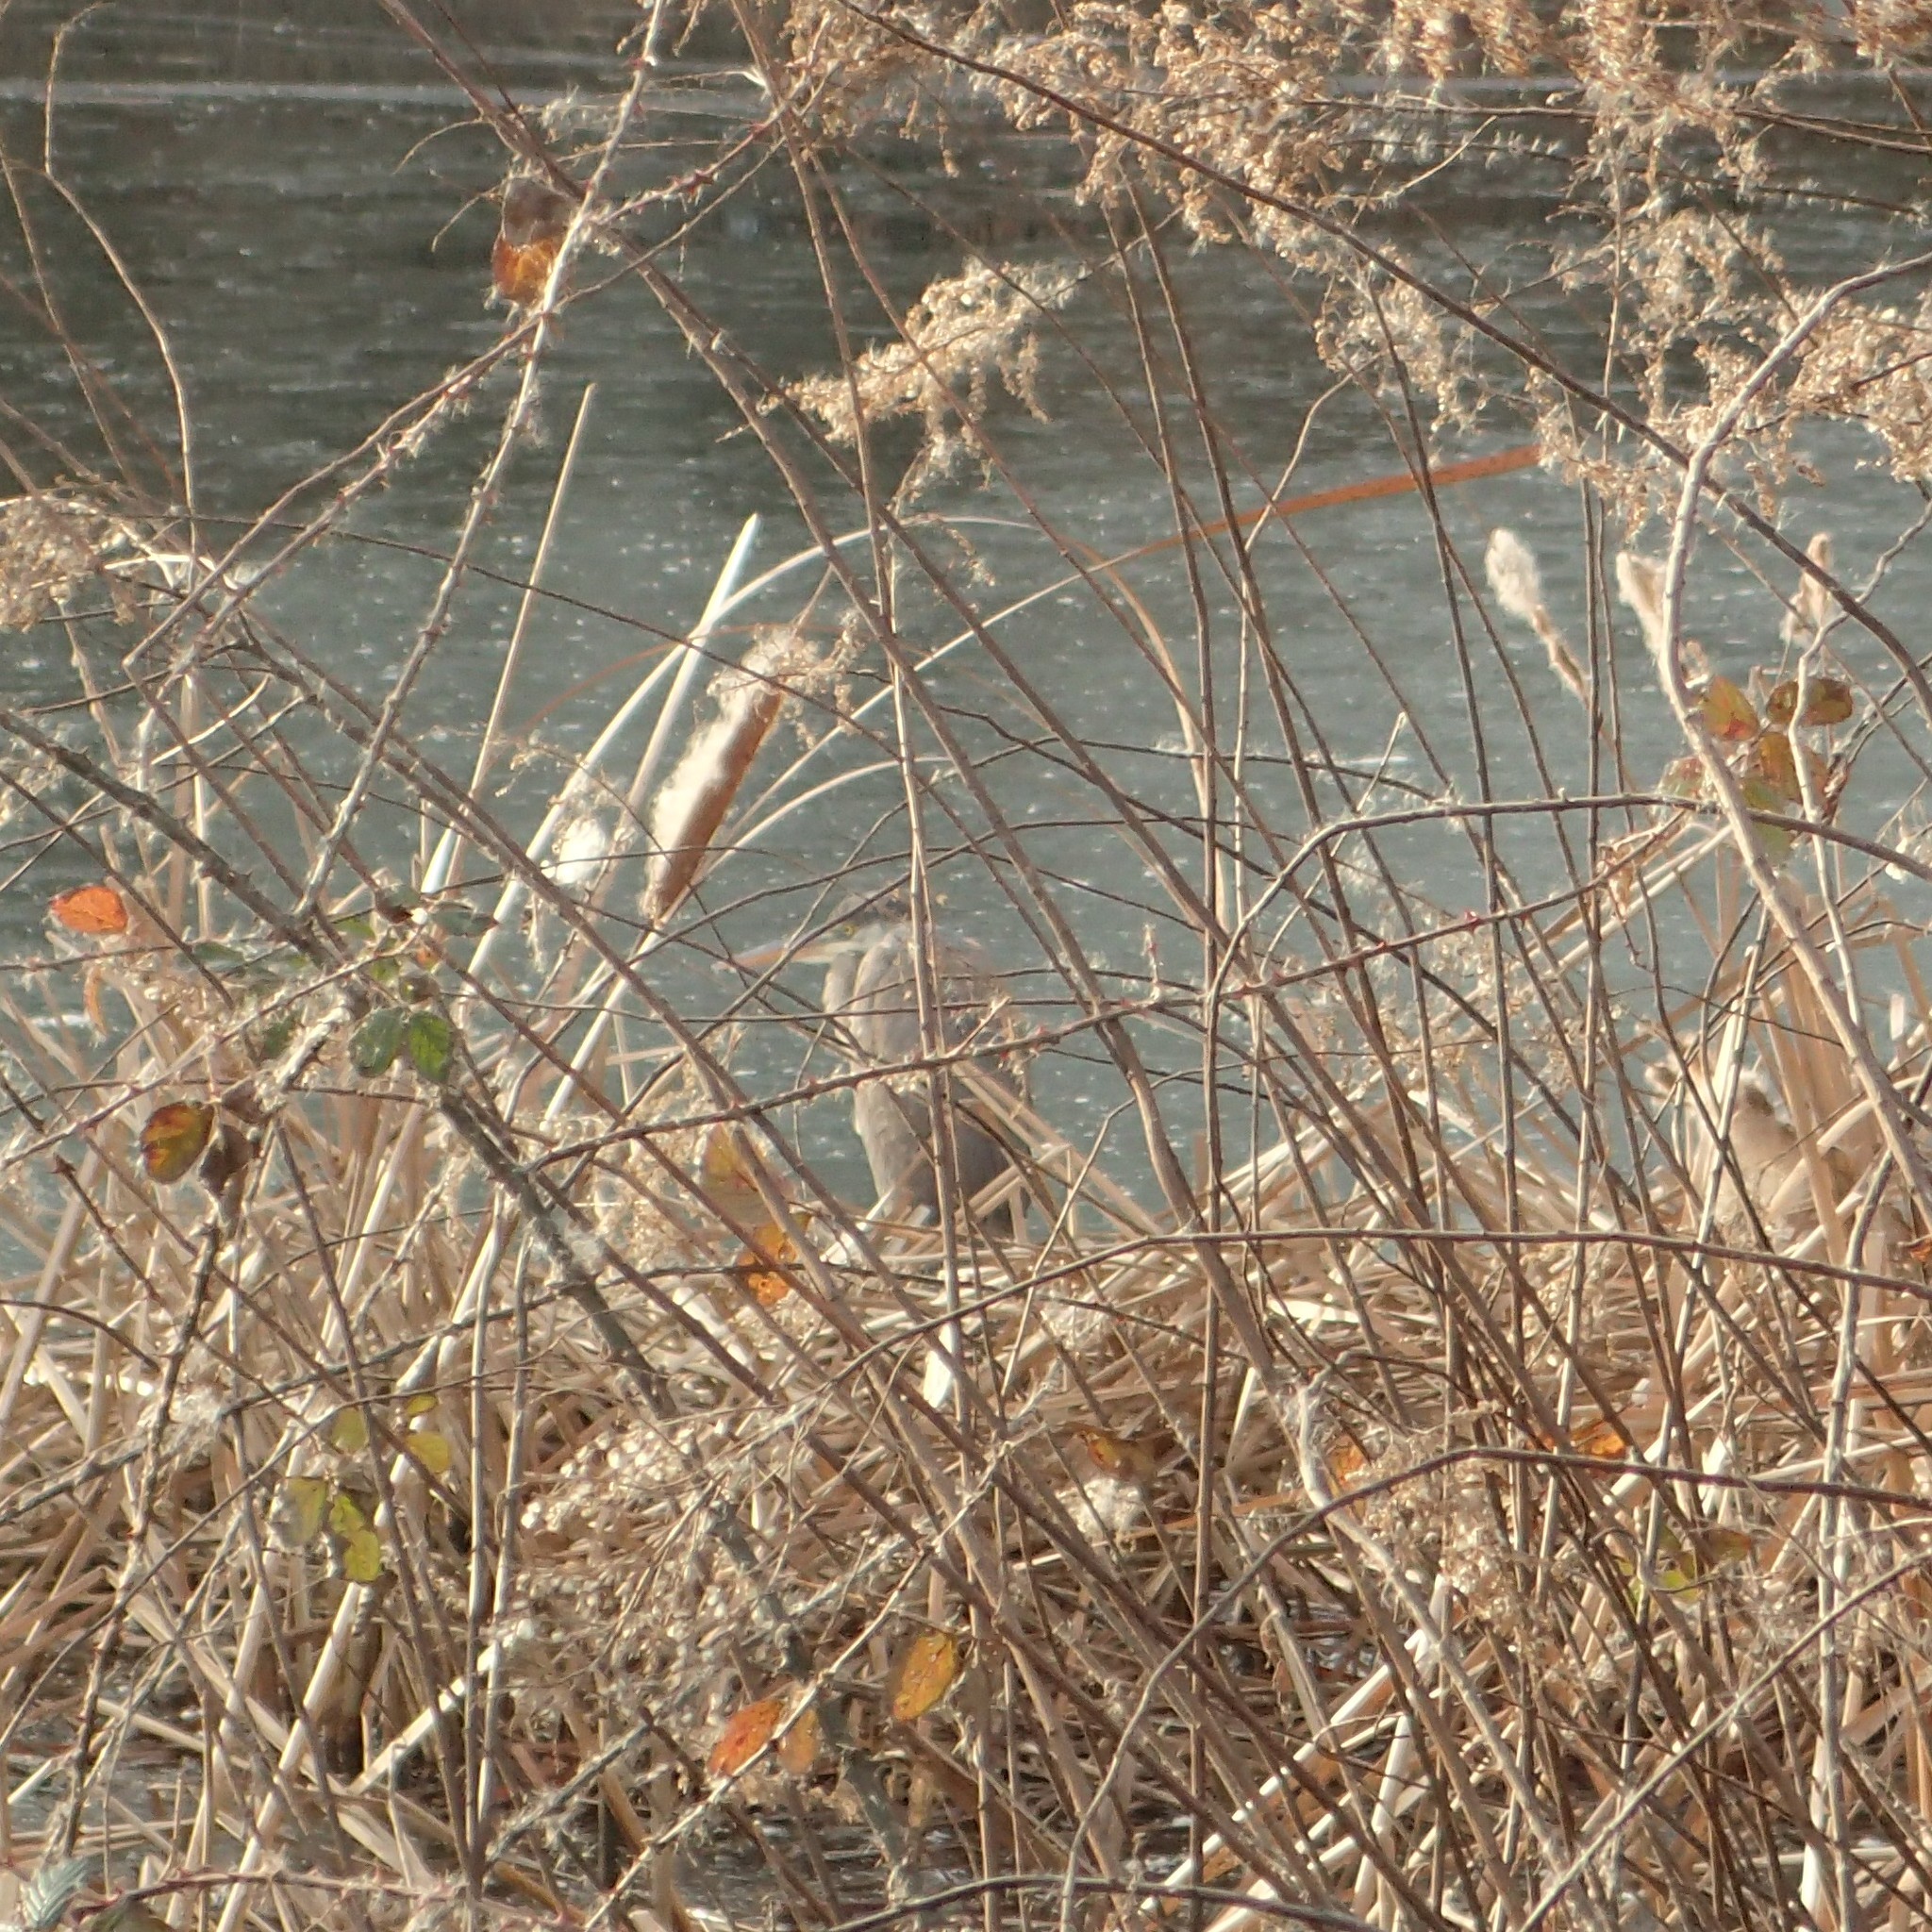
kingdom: Animalia
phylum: Chordata
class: Aves
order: Pelecaniformes
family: Ardeidae
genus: Ardea
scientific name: Ardea herodias
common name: Great blue heron
